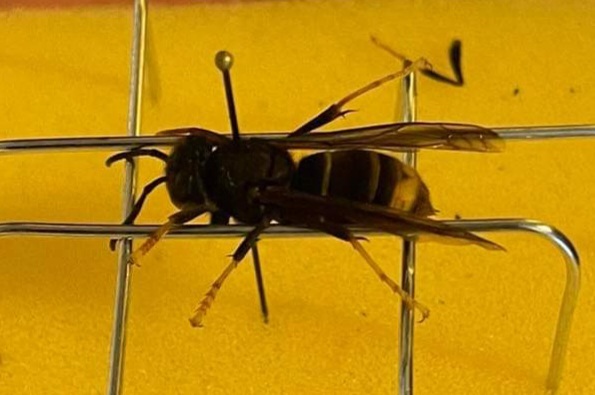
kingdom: Animalia
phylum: Arthropoda
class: Insecta
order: Hymenoptera
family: Vespidae
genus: Vespa
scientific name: Vespa velutina
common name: Asian hornet
